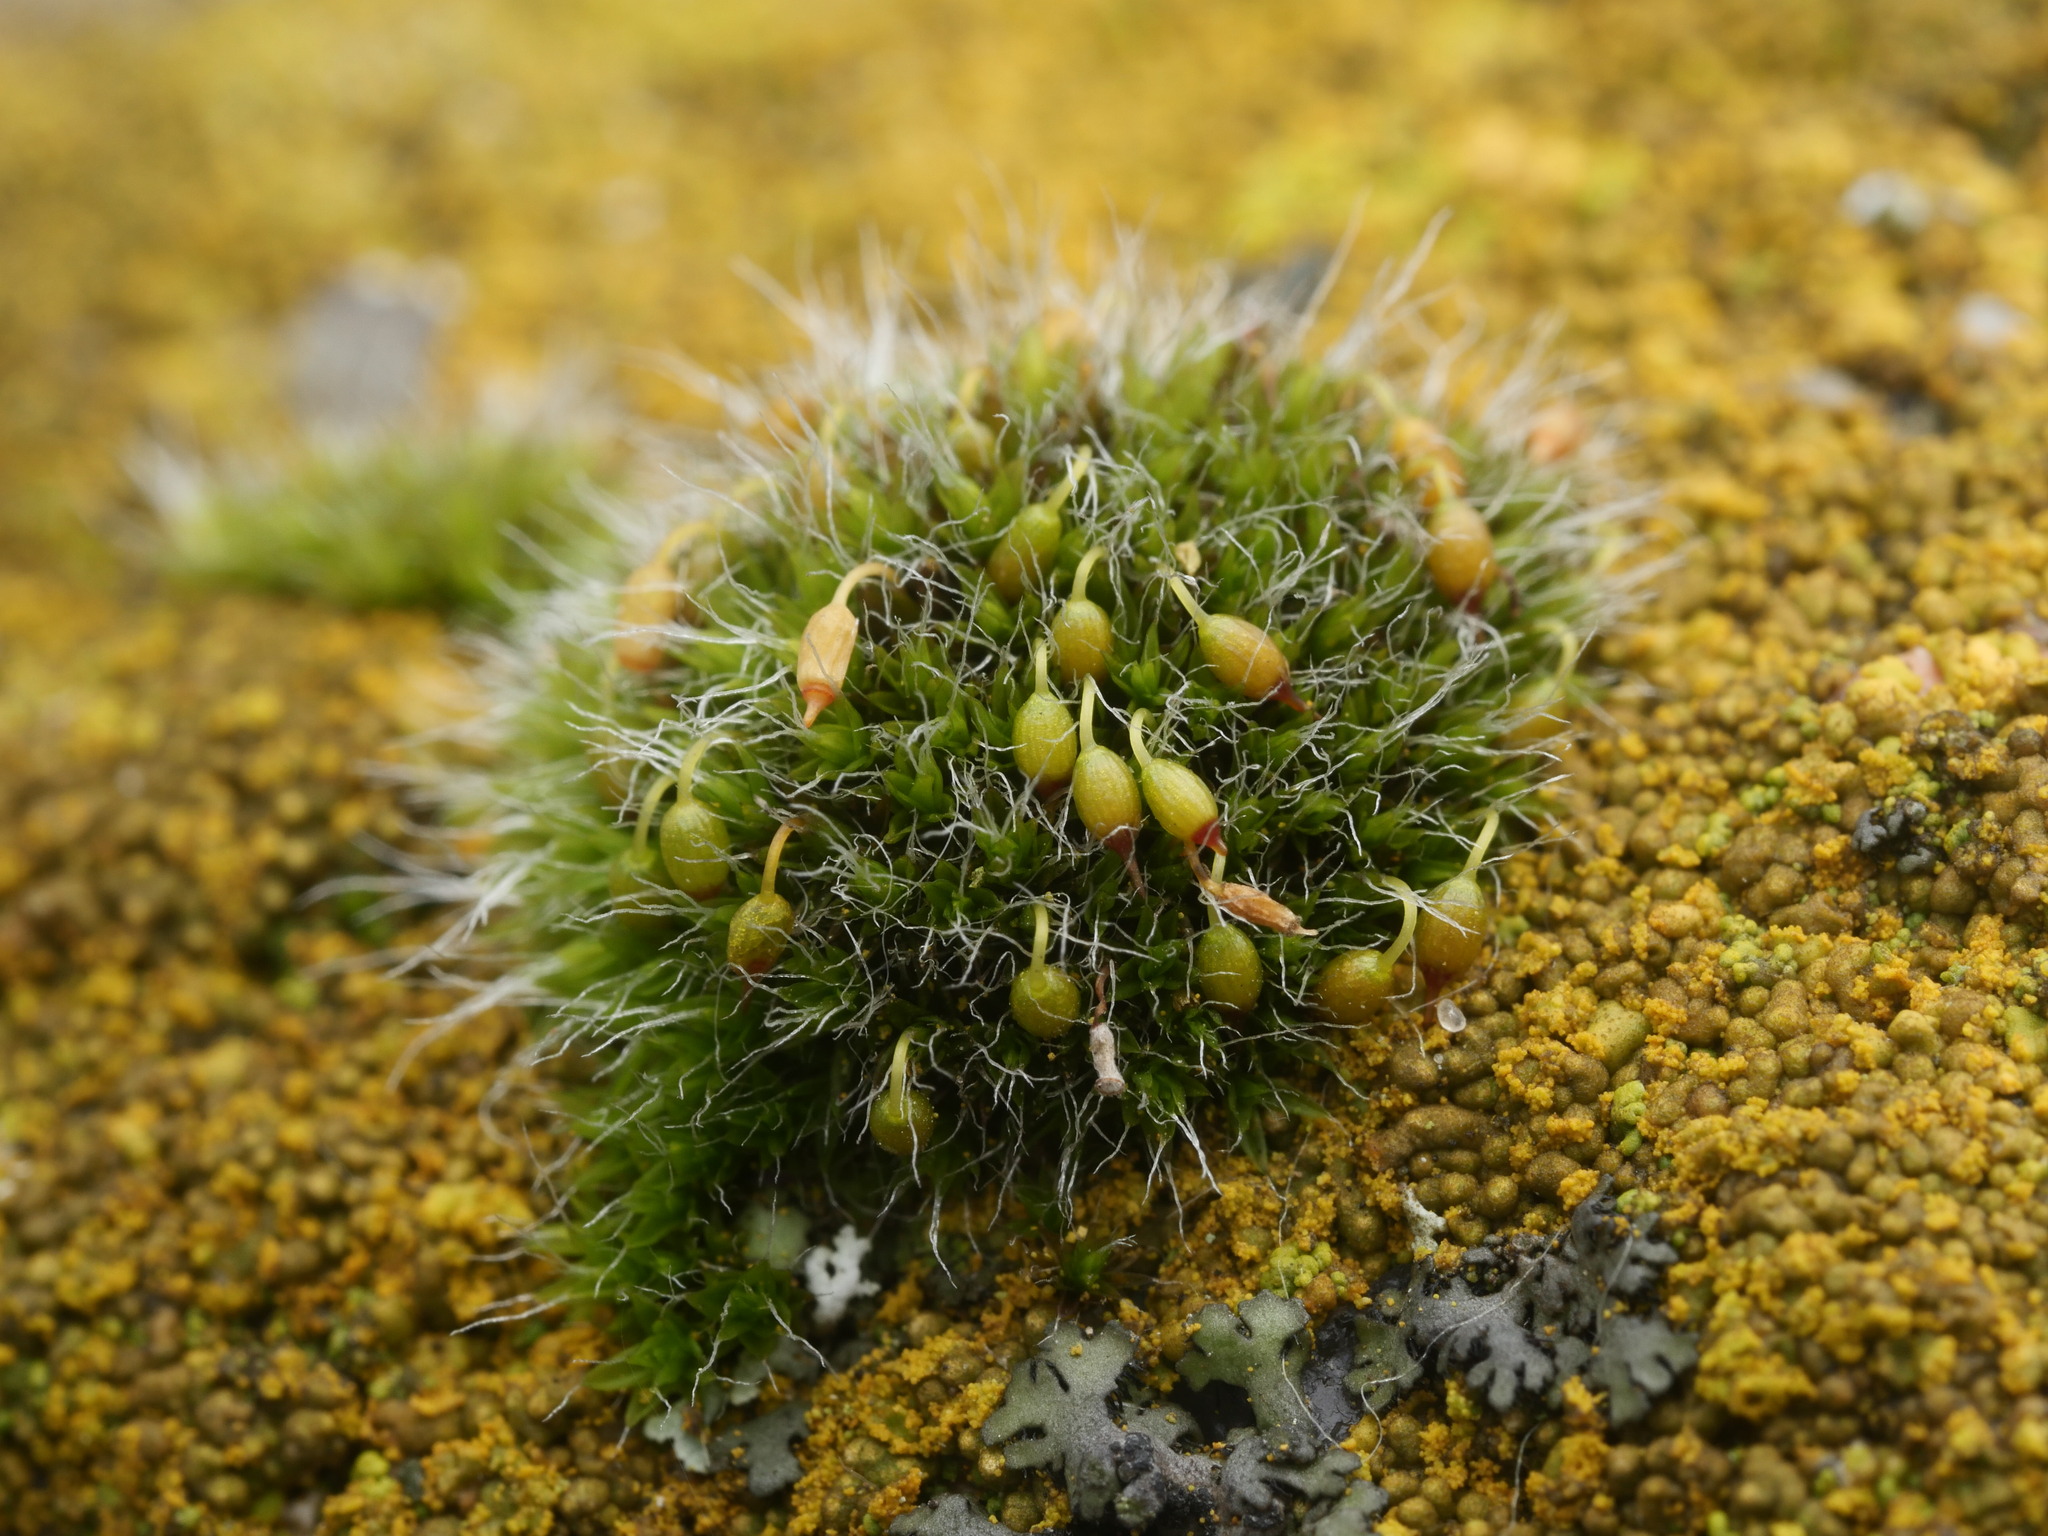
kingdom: Plantae
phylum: Bryophyta
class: Bryopsida
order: Grimmiales
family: Grimmiaceae
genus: Grimmia
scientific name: Grimmia pulvinata
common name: Grey-cushioned grimmia
